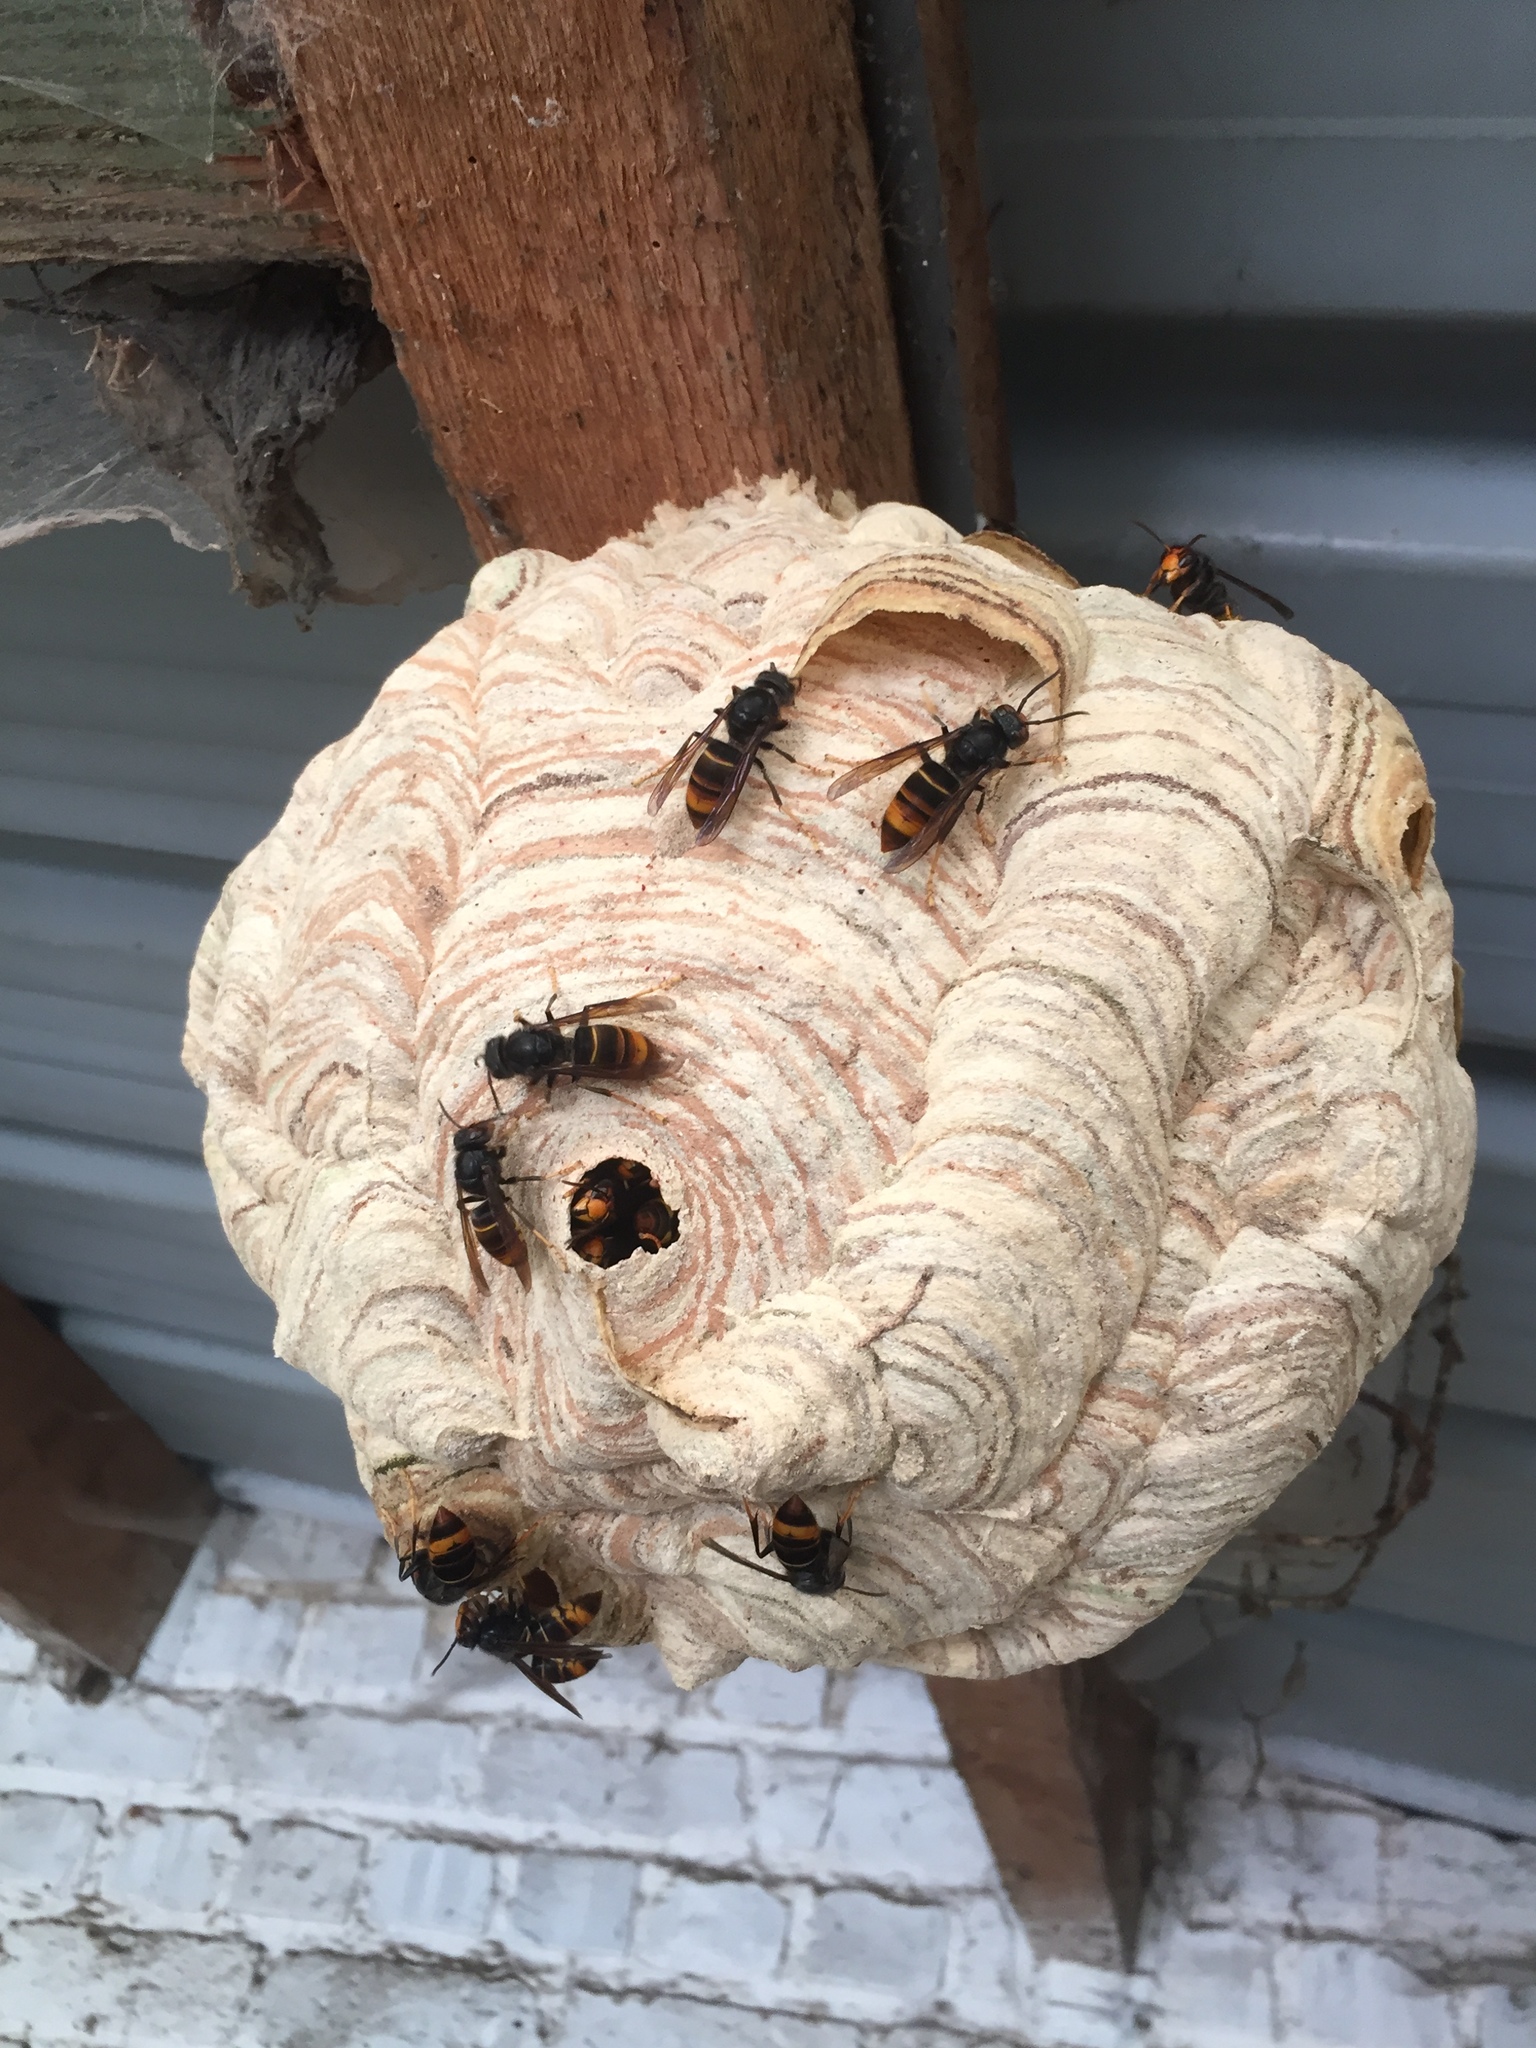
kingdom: Animalia
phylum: Arthropoda
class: Insecta
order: Hymenoptera
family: Vespidae
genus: Vespa
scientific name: Vespa velutina
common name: Asian hornet
